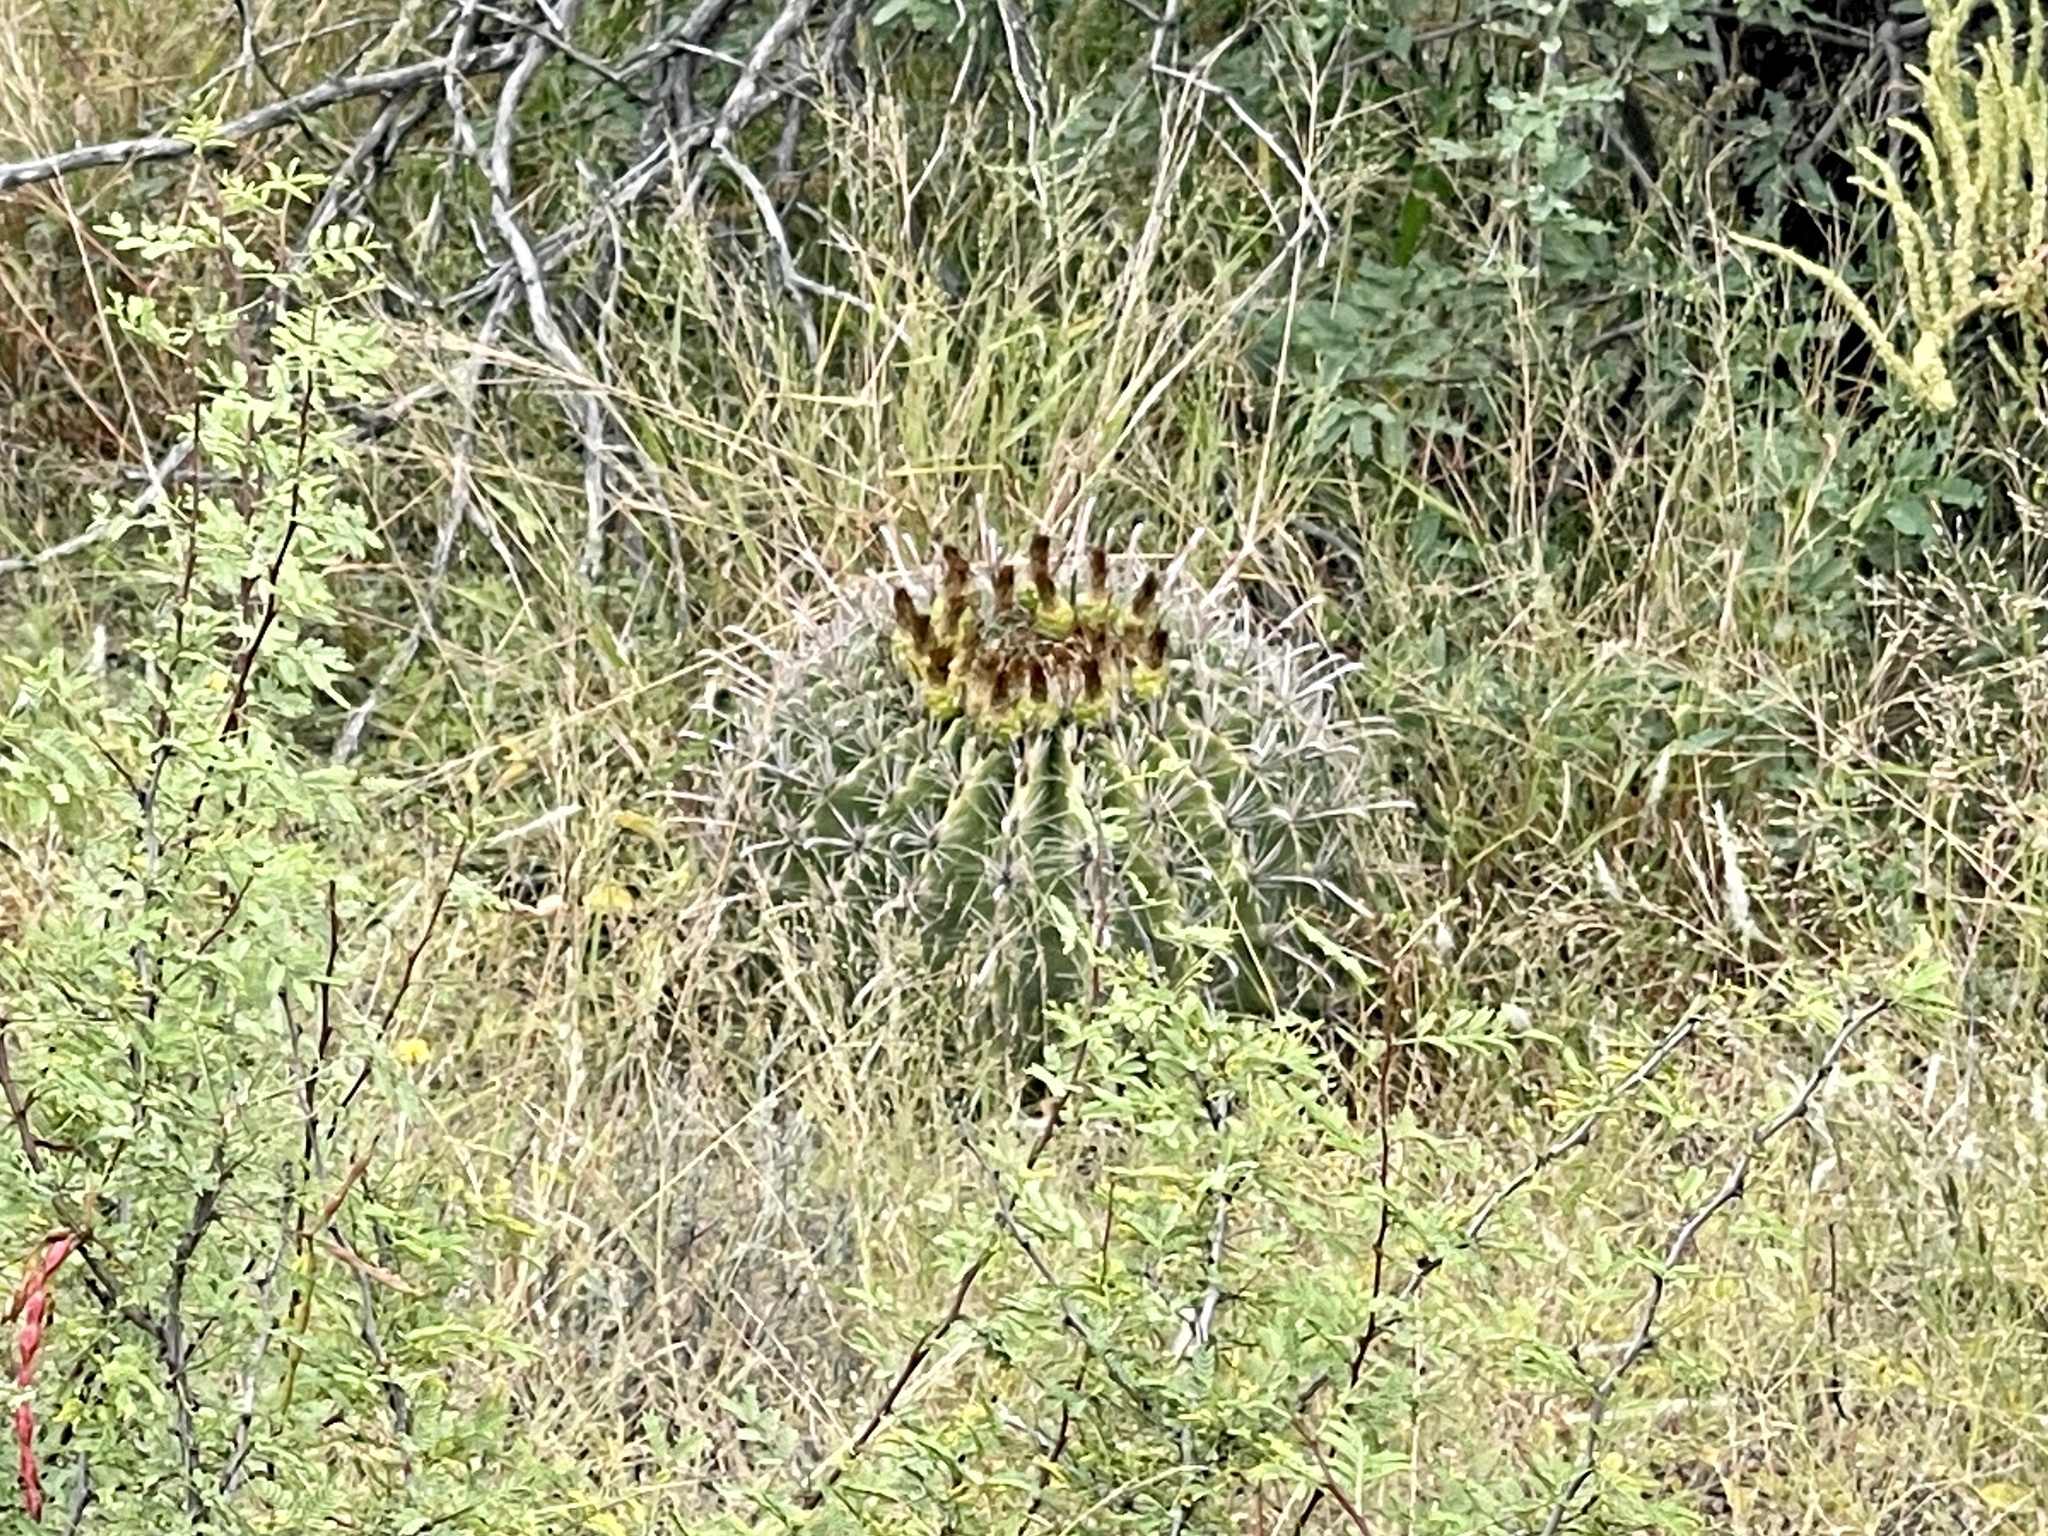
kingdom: Plantae
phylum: Tracheophyta
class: Magnoliopsida
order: Caryophyllales
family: Cactaceae
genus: Ferocactus
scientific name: Ferocactus wislizeni
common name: Candy barrel cactus
